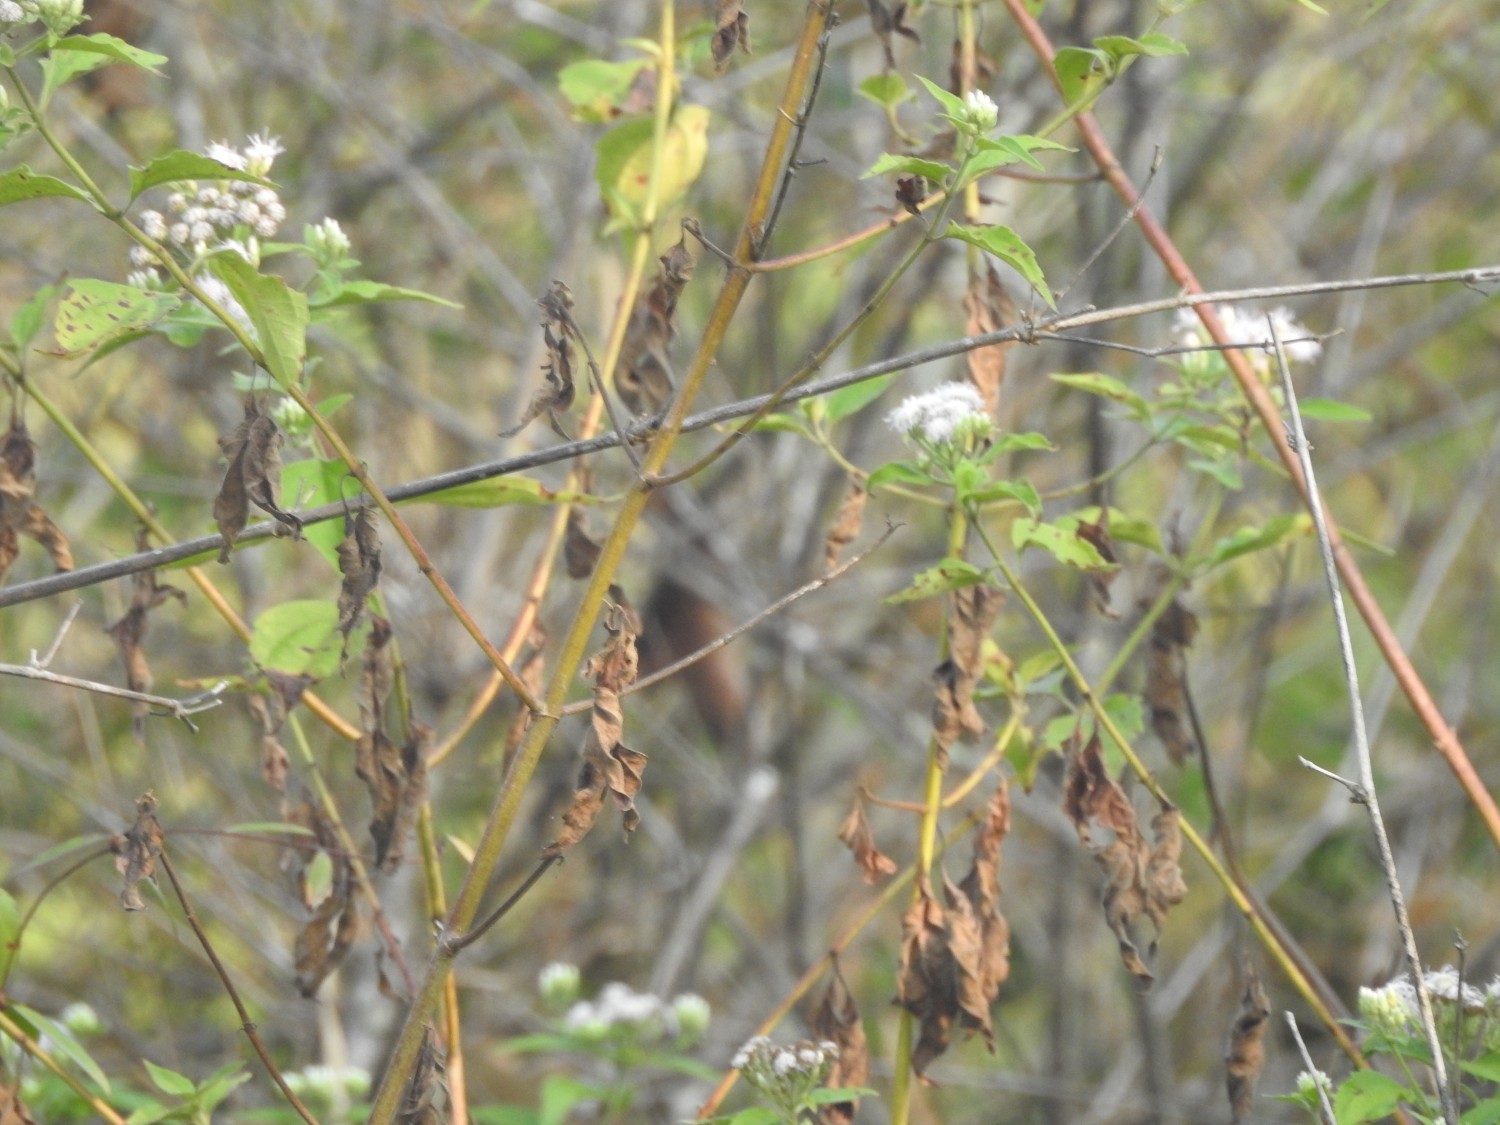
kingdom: Plantae
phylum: Tracheophyta
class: Magnoliopsida
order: Asterales
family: Asteraceae
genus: Chromolaena
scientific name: Chromolaena odorata
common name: Siamweed
